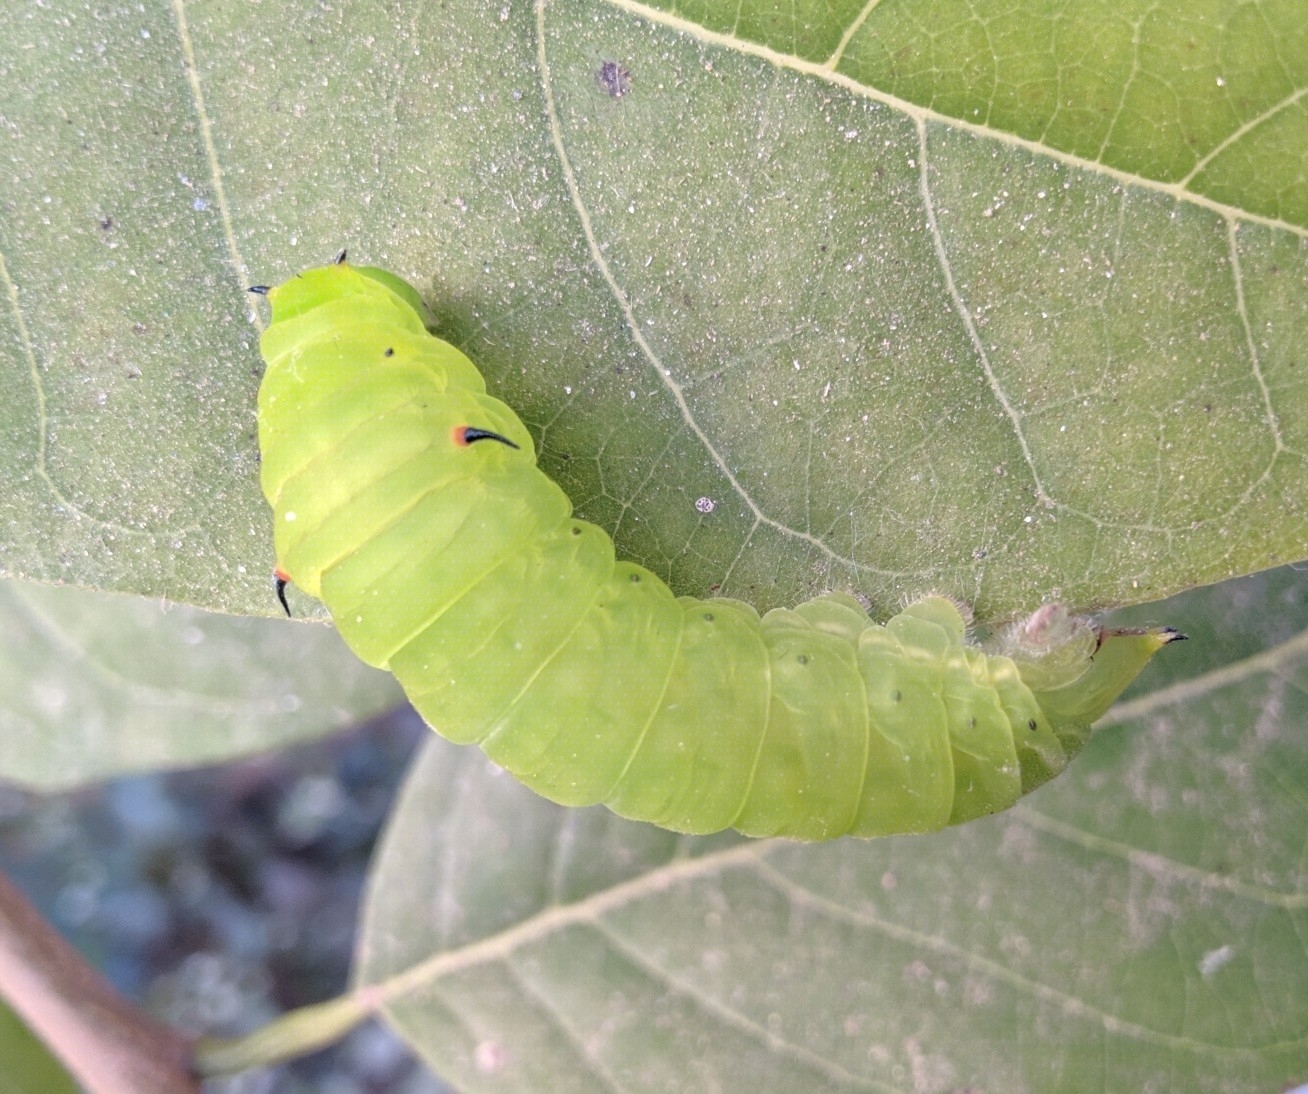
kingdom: Animalia
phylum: Arthropoda
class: Insecta
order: Lepidoptera
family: Papilionidae
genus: Graphium
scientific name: Graphium agamemnon
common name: Tailed jay
